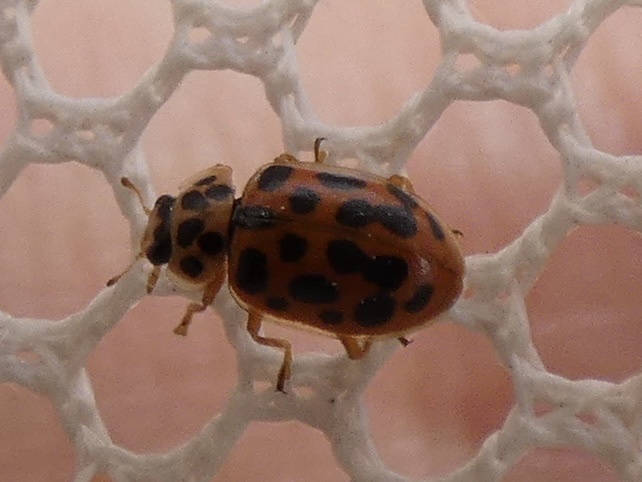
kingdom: Animalia
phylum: Arthropoda
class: Insecta
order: Coleoptera
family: Coccinellidae
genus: Anisosticta
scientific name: Anisosticta novemdecimpunctata
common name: Water ladybird
